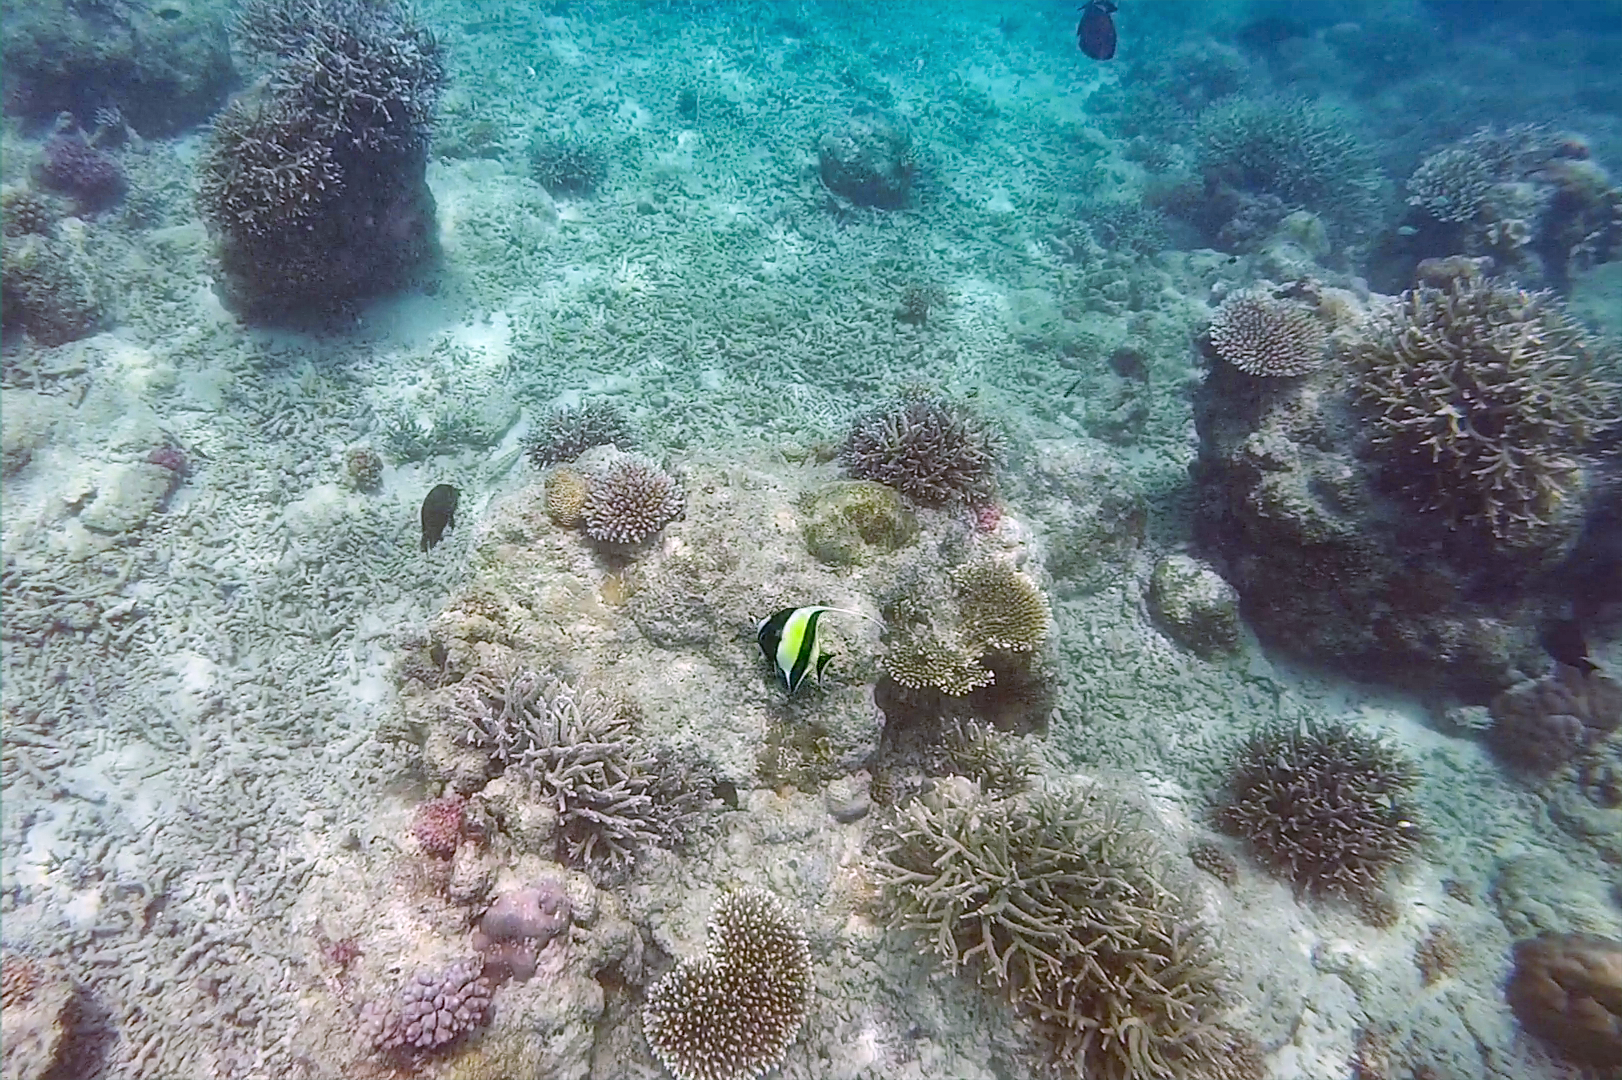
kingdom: Animalia
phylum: Chordata
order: Perciformes
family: Zanclidae
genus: Zanclus
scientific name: Zanclus cornutus
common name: Moorish idol
